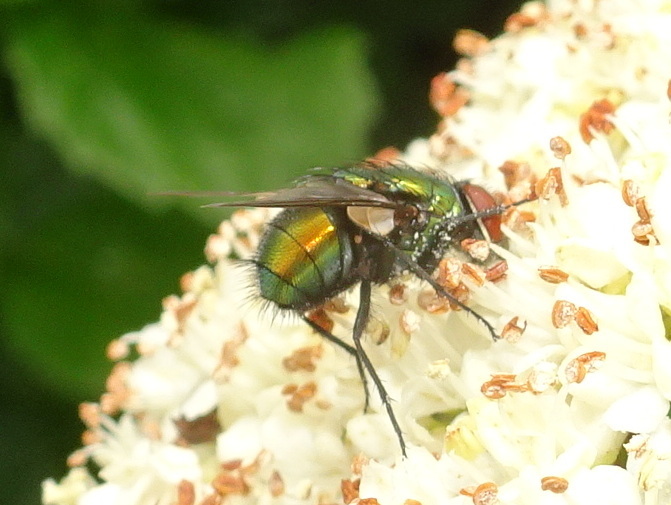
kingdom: Animalia
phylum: Arthropoda
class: Insecta
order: Diptera
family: Calliphoridae
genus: Lucilia
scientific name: Lucilia sericata
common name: Blow fly
